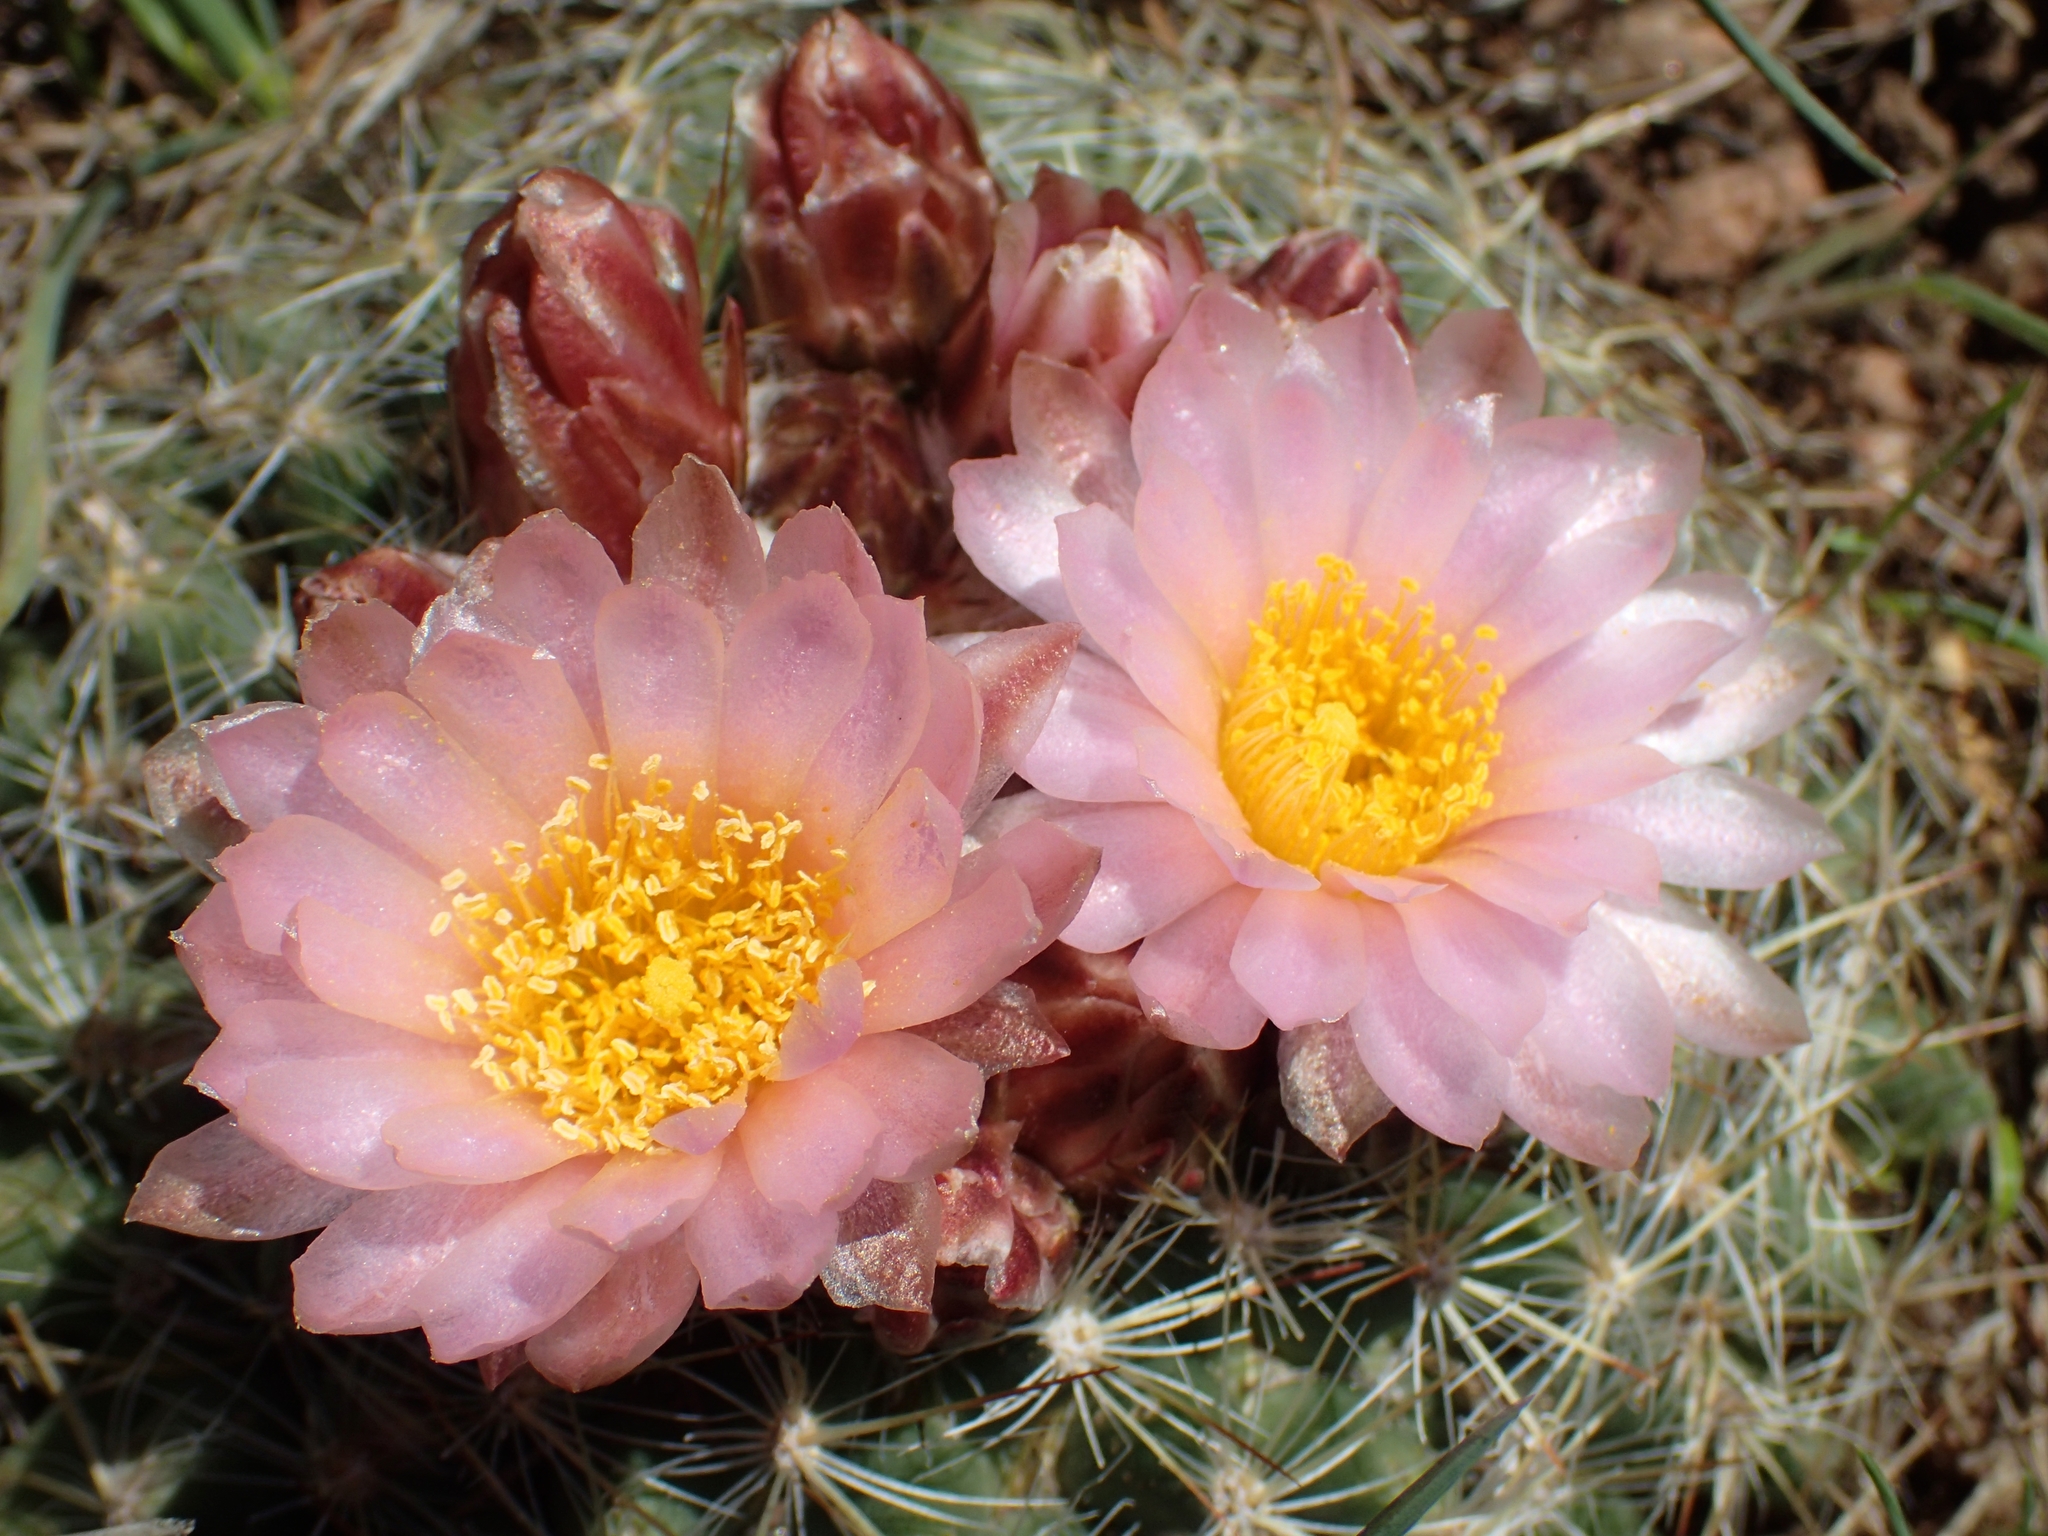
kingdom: Plantae
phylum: Tracheophyta
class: Magnoliopsida
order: Caryophyllales
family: Cactaceae
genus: Pediocactus
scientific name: Pediocactus simpsonii
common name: Simpson's hedgehog cactus
